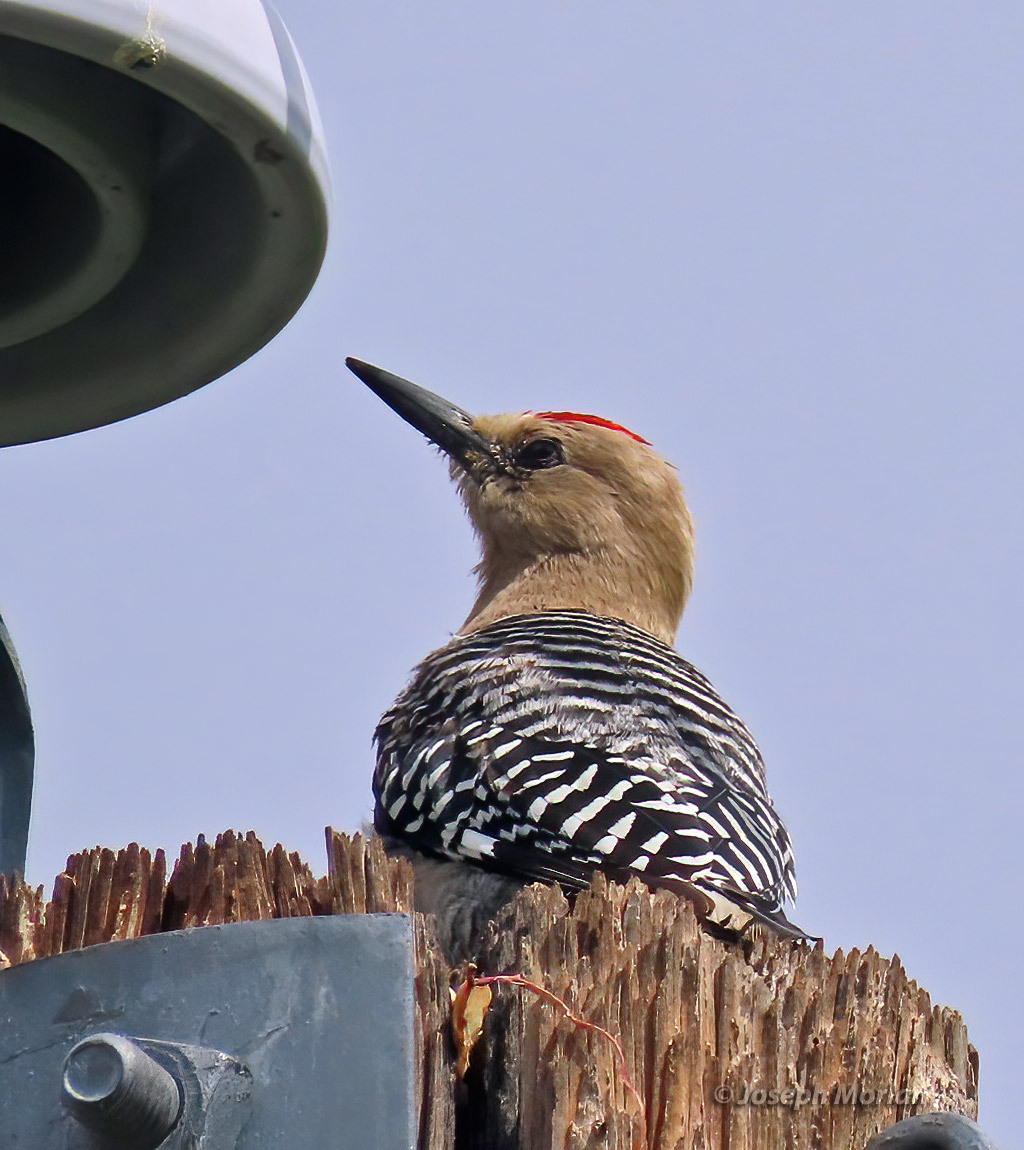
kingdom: Animalia
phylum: Chordata
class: Aves
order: Piciformes
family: Picidae
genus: Melanerpes
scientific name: Melanerpes uropygialis
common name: Gila woodpecker
